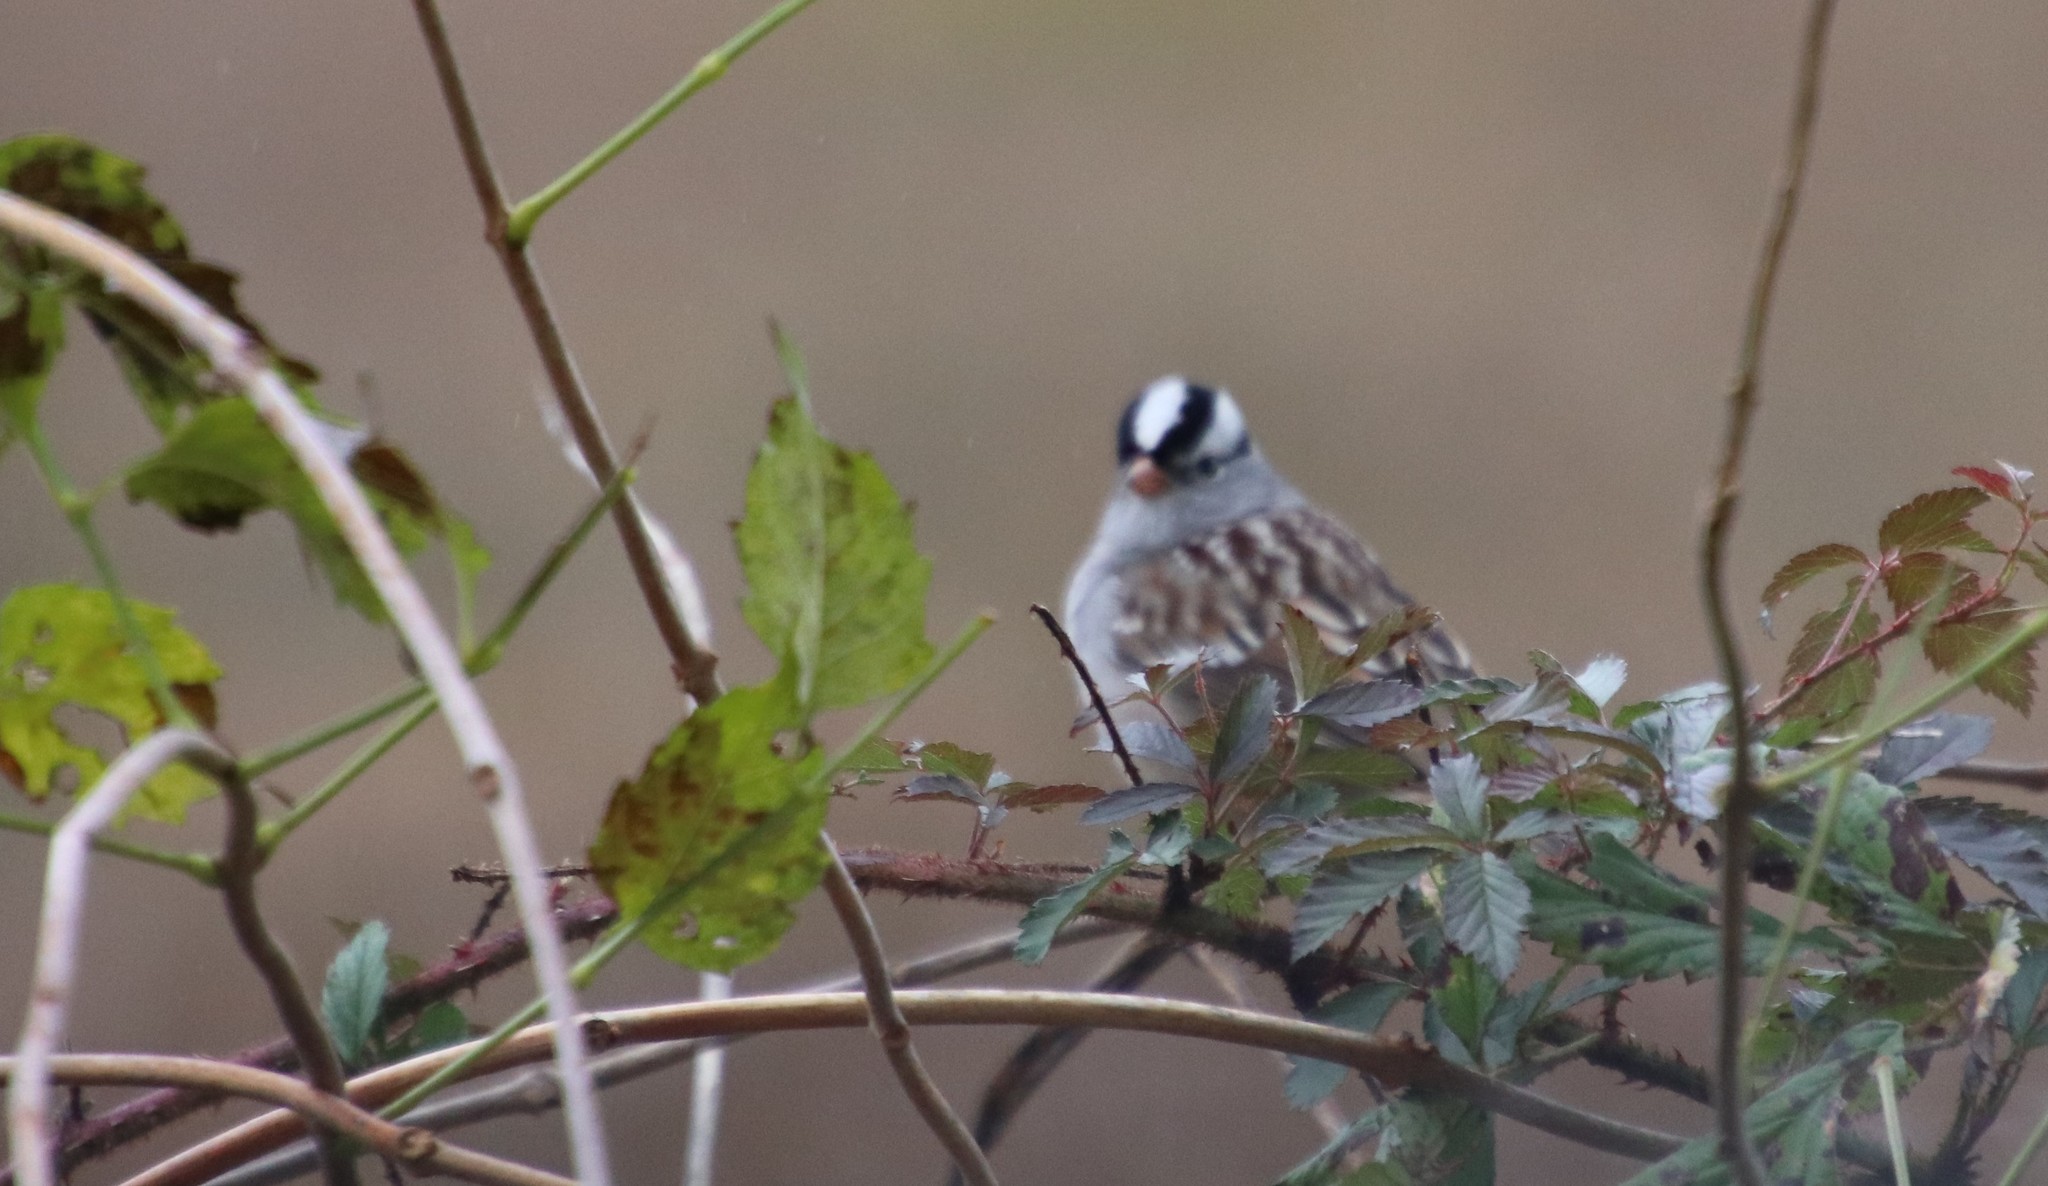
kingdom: Animalia
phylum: Chordata
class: Aves
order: Passeriformes
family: Passerellidae
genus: Zonotrichia
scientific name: Zonotrichia leucophrys
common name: White-crowned sparrow
